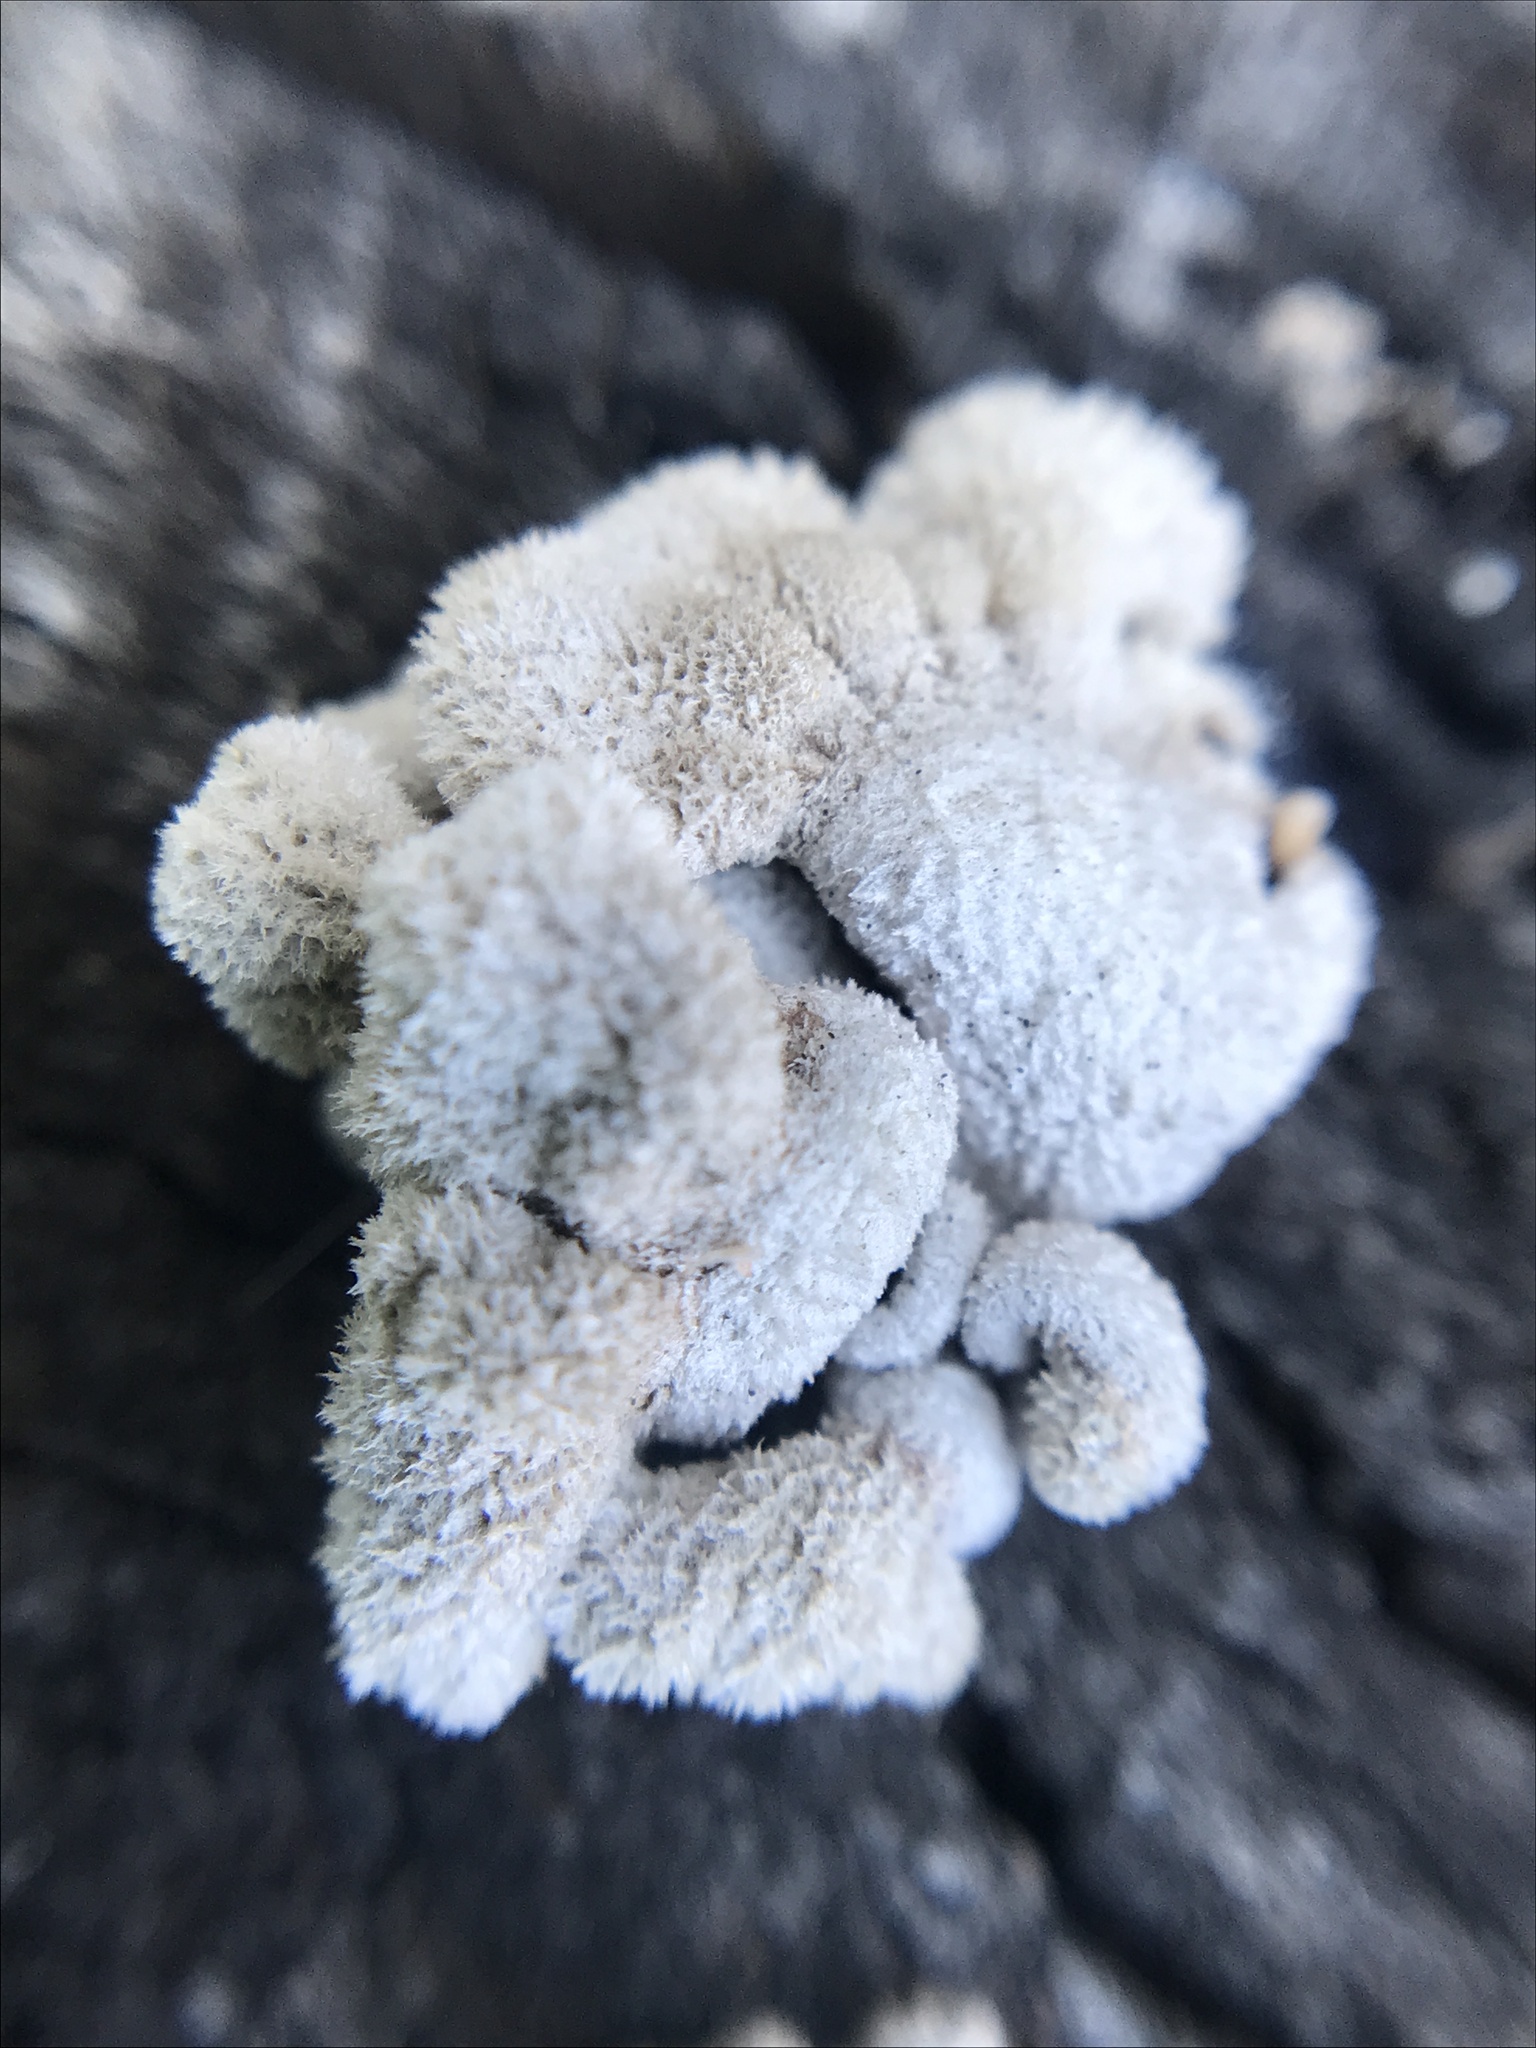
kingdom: Fungi
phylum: Basidiomycota
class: Agaricomycetes
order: Agaricales
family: Schizophyllaceae
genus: Schizophyllum
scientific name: Schizophyllum commune
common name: Common porecrust
